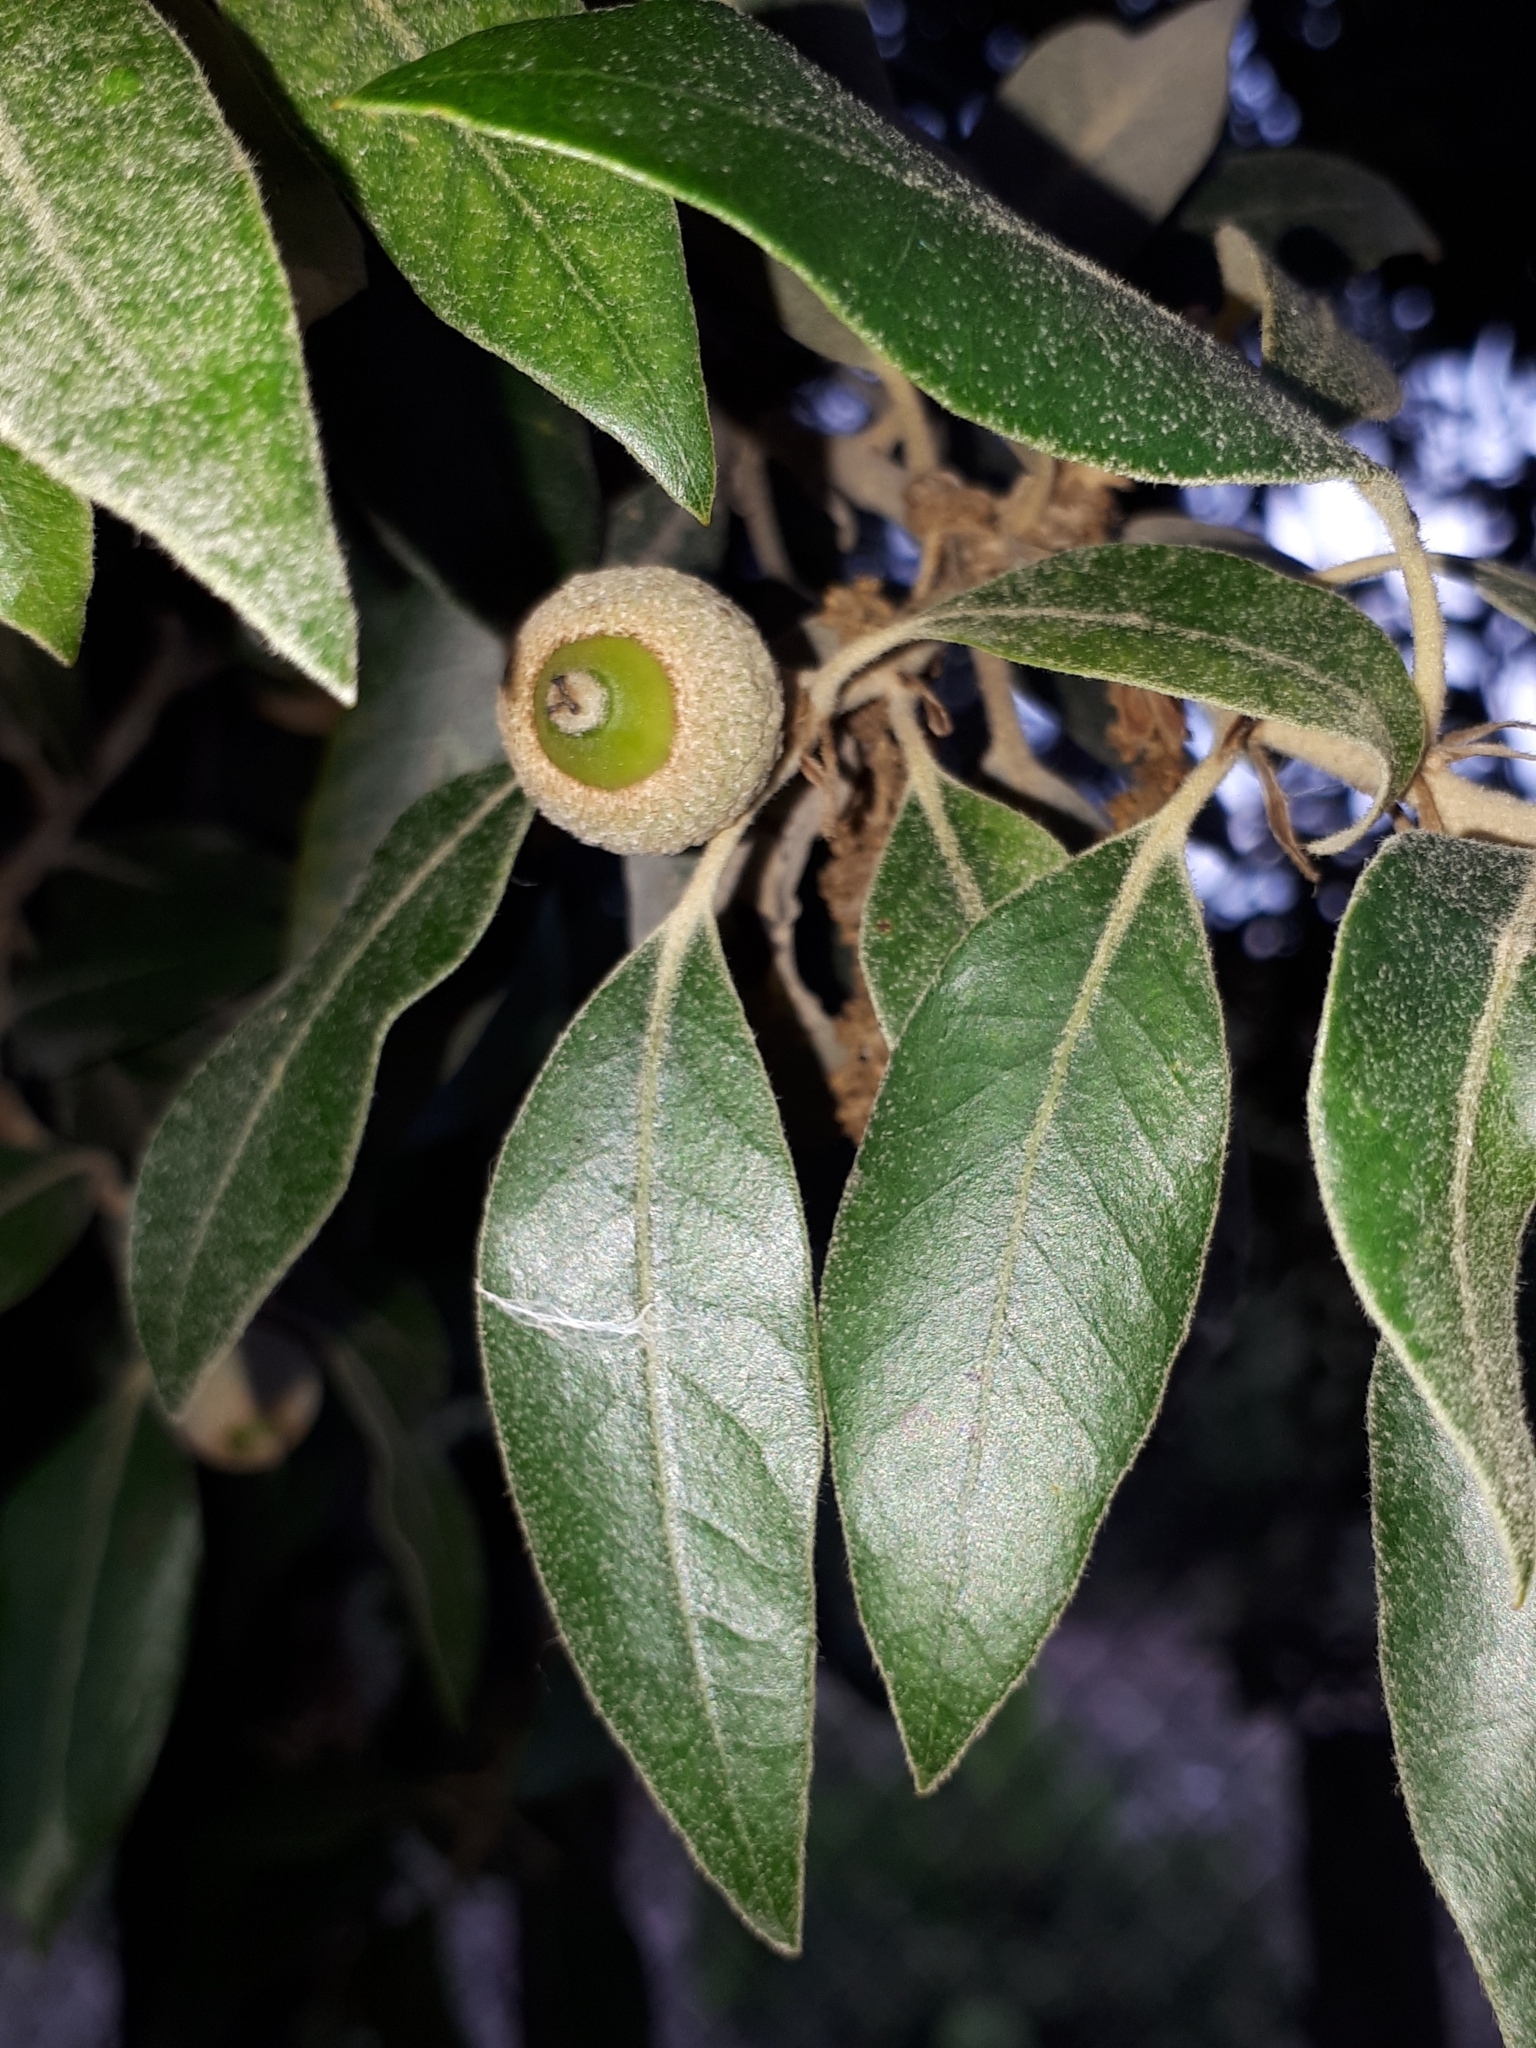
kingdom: Plantae
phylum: Tracheophyta
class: Magnoliopsida
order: Fagales
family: Fagaceae
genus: Quercus
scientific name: Quercus ilex
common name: Evergreen oak
